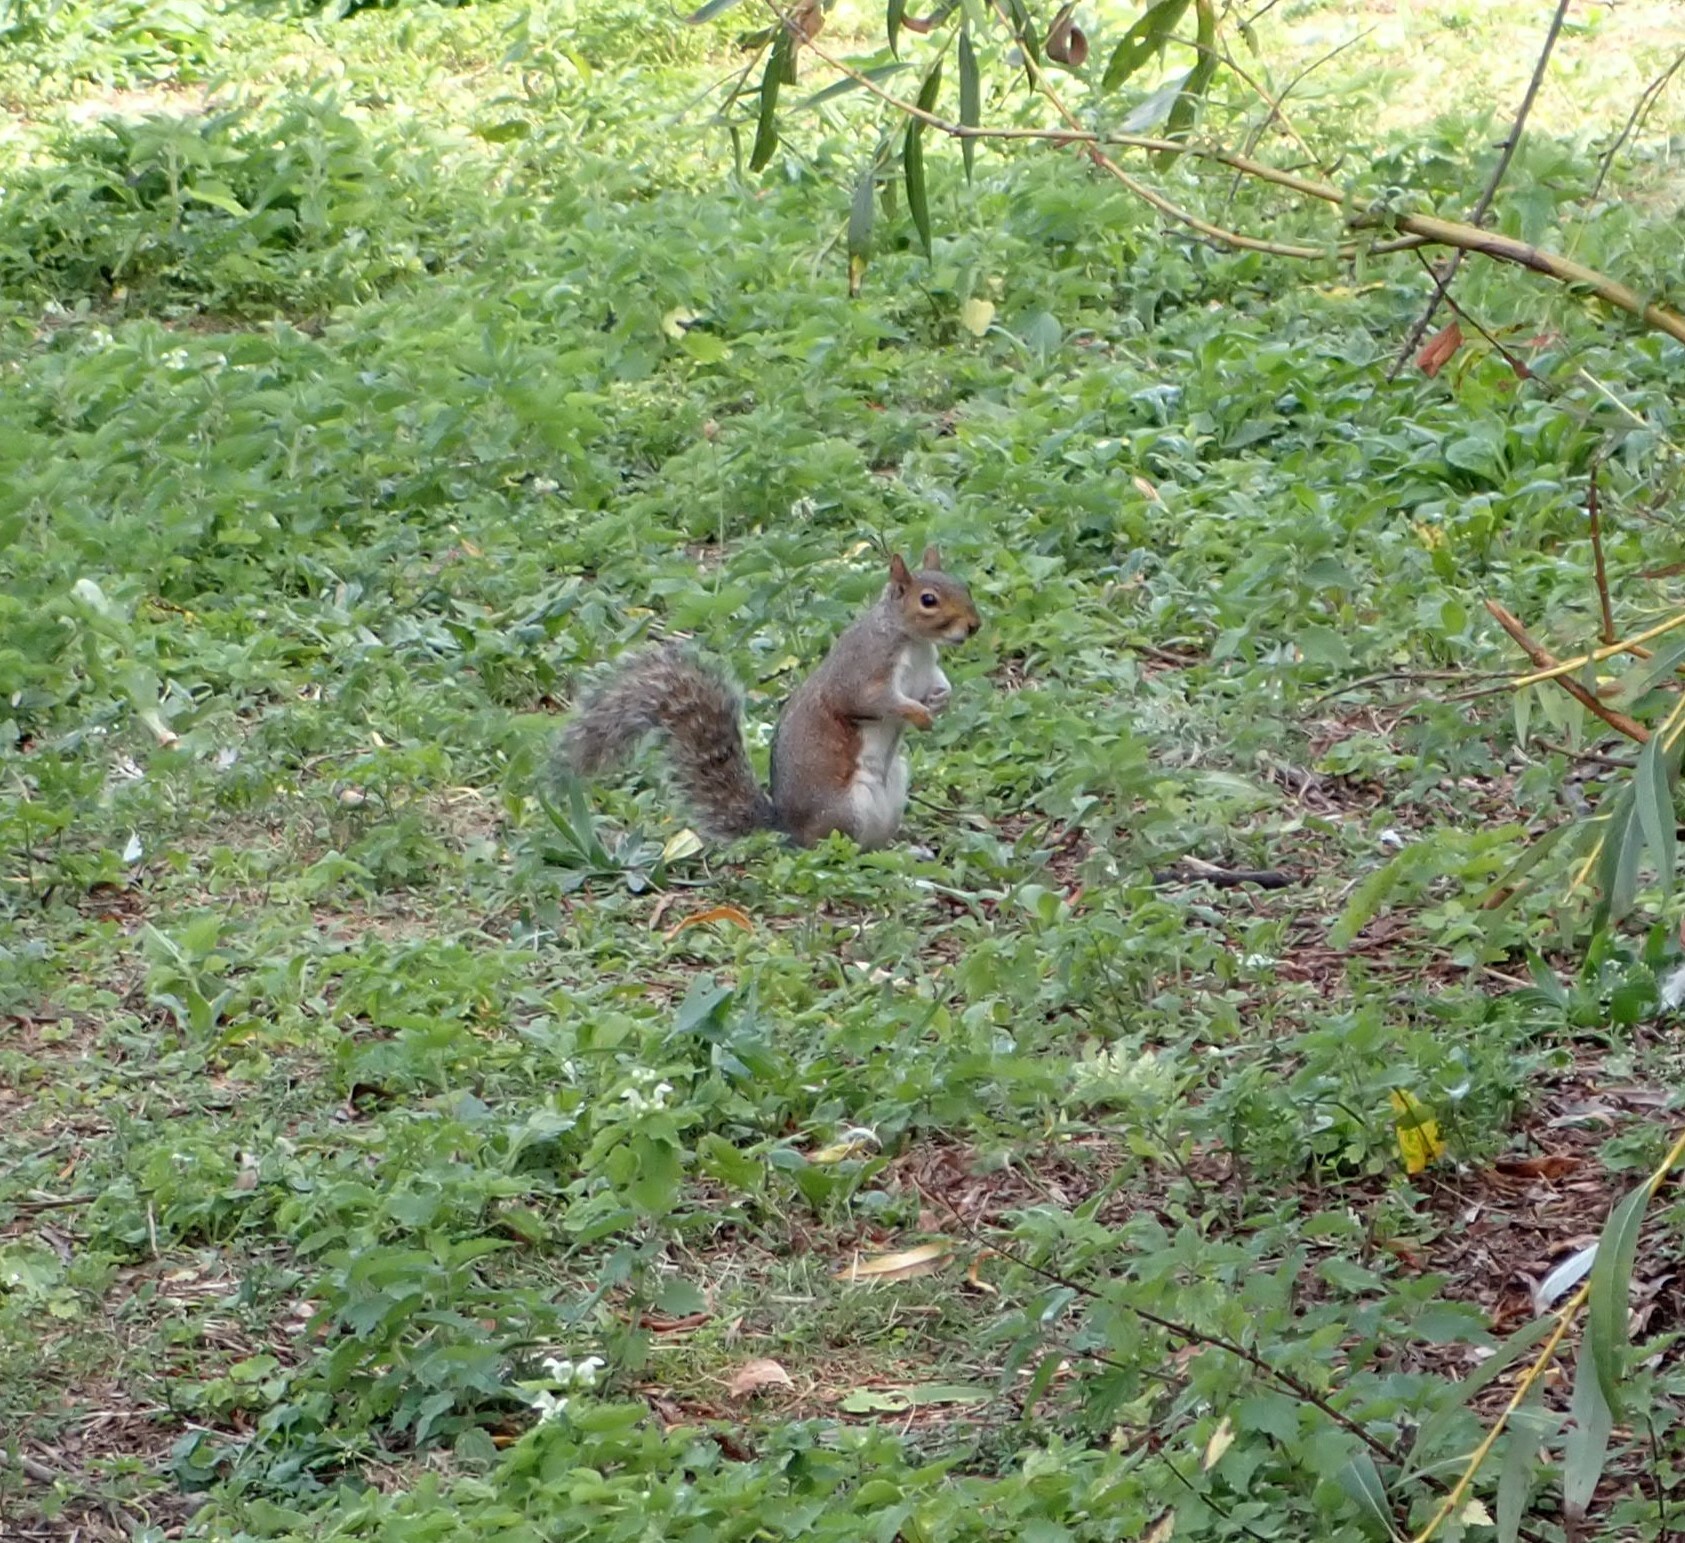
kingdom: Animalia
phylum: Chordata
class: Mammalia
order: Rodentia
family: Sciuridae
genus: Sciurus
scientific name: Sciurus carolinensis
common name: Eastern gray squirrel
